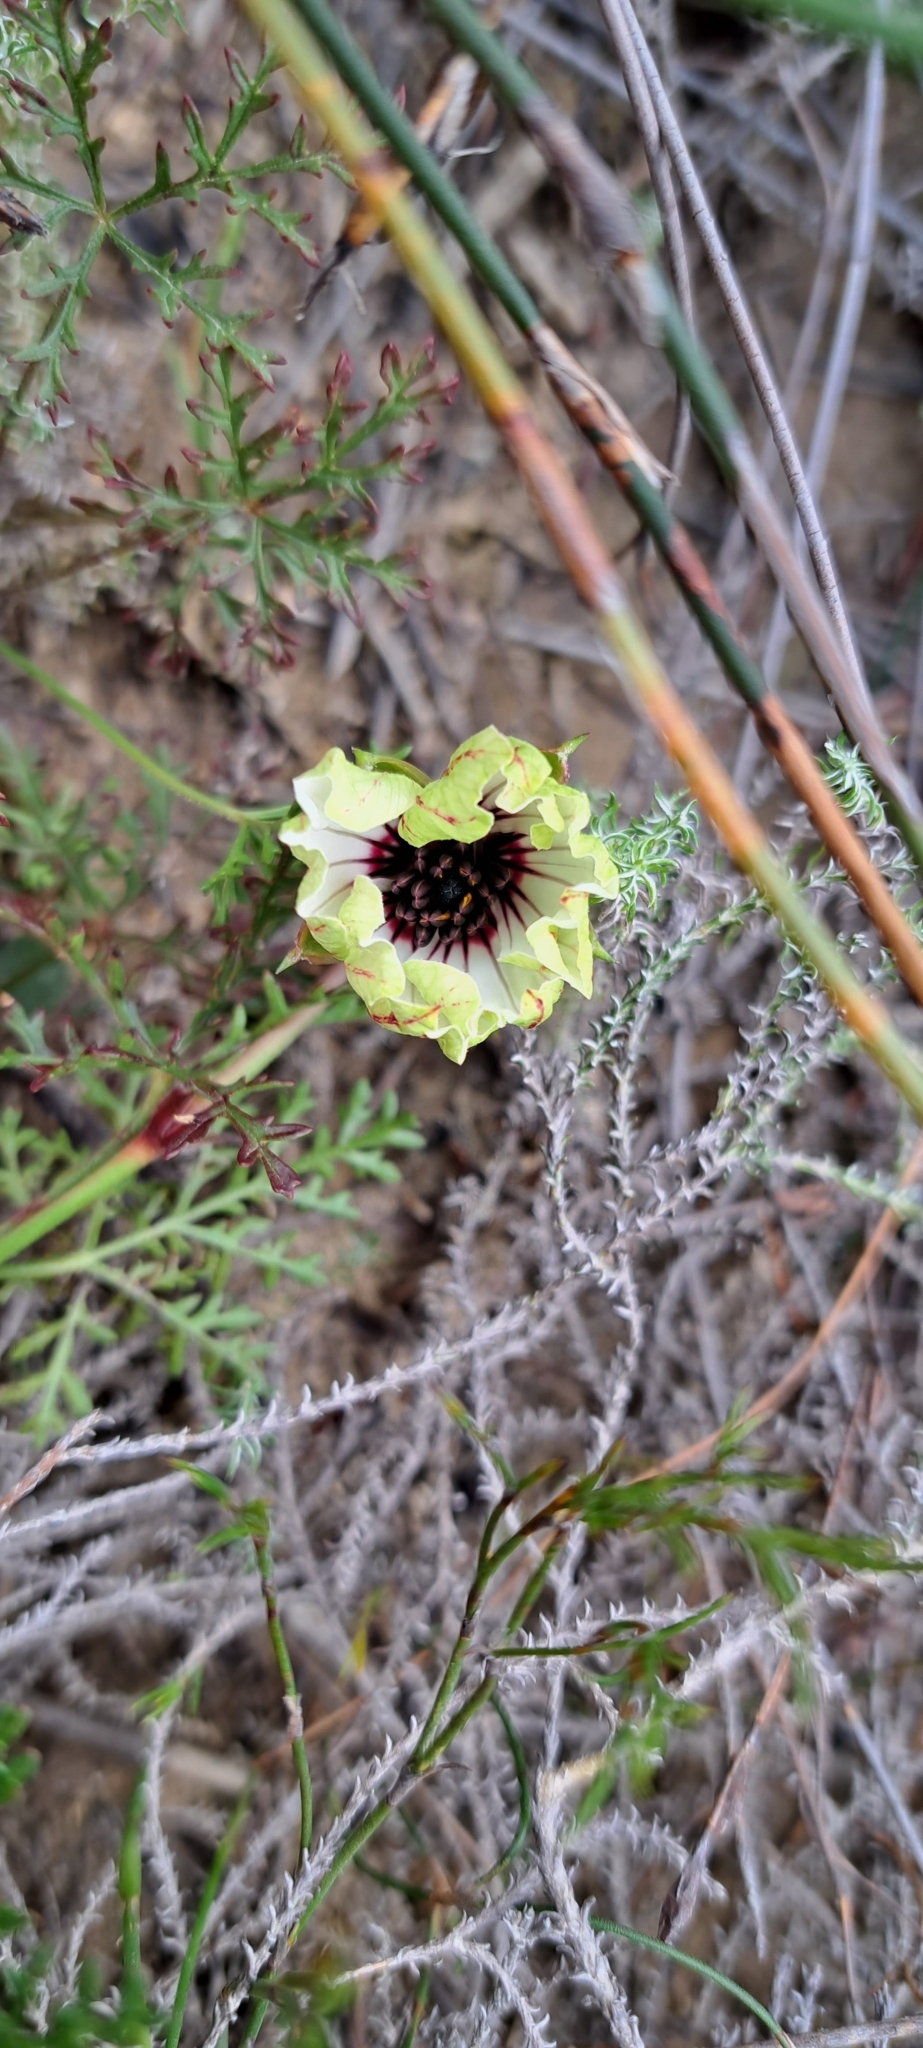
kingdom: Plantae
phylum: Tracheophyta
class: Magnoliopsida
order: Geraniales
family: Geraniaceae
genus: Monsonia
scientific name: Monsonia speciosa
